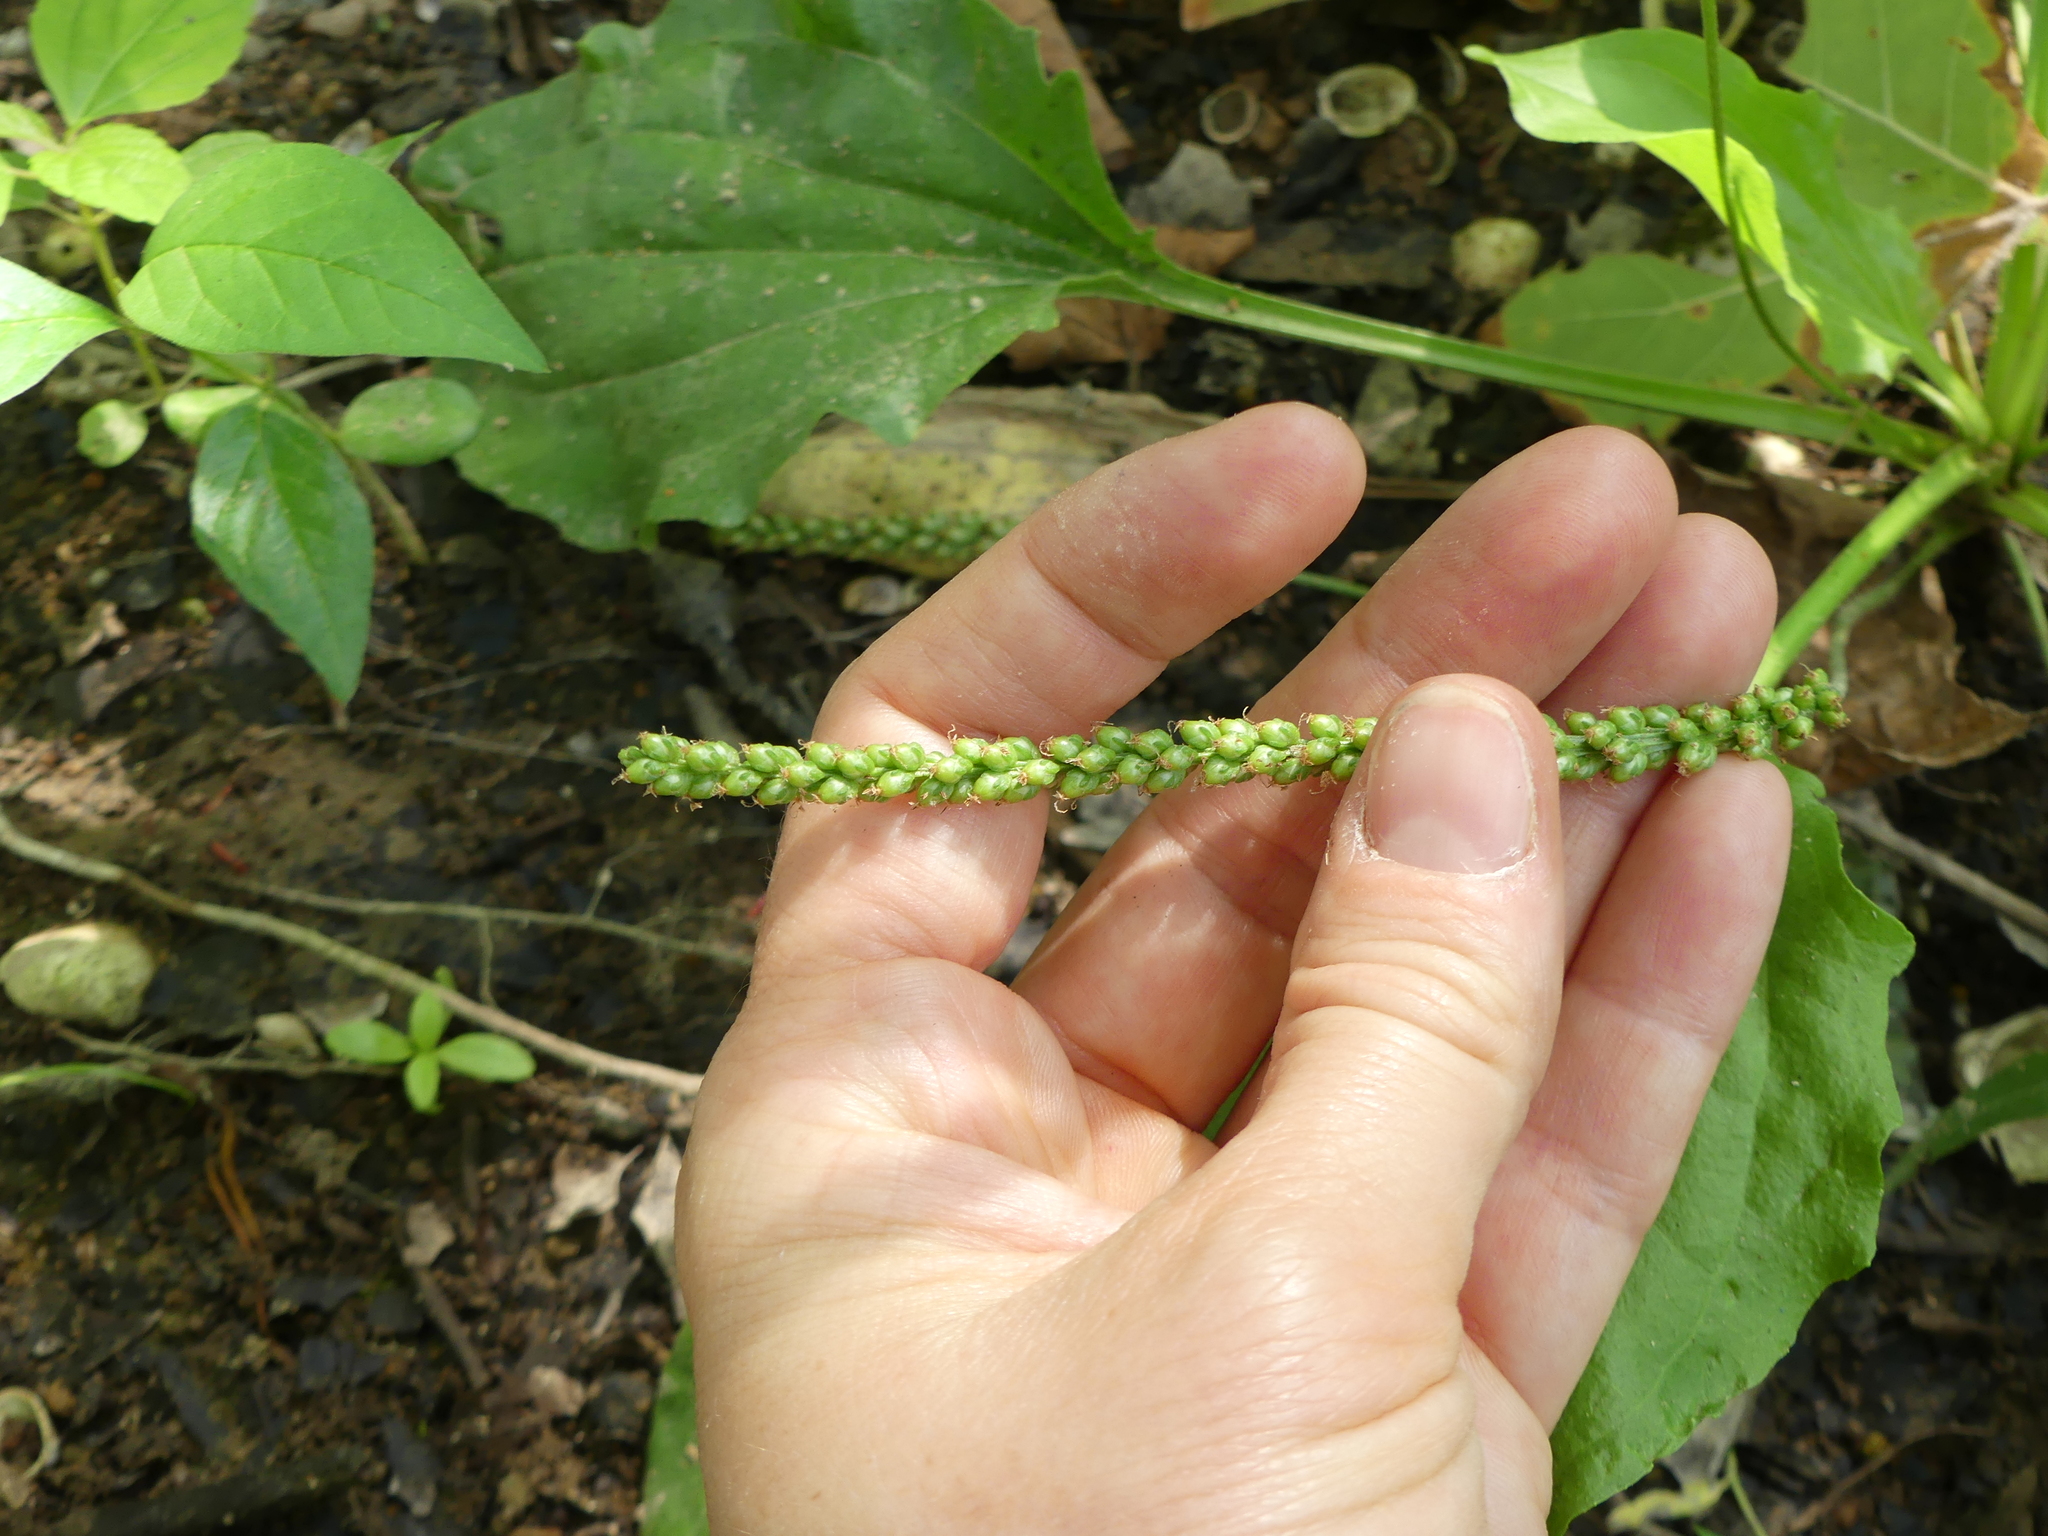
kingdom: Plantae
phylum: Tracheophyta
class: Magnoliopsida
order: Lamiales
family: Plantaginaceae
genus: Plantago
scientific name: Plantago major
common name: Common plantain
